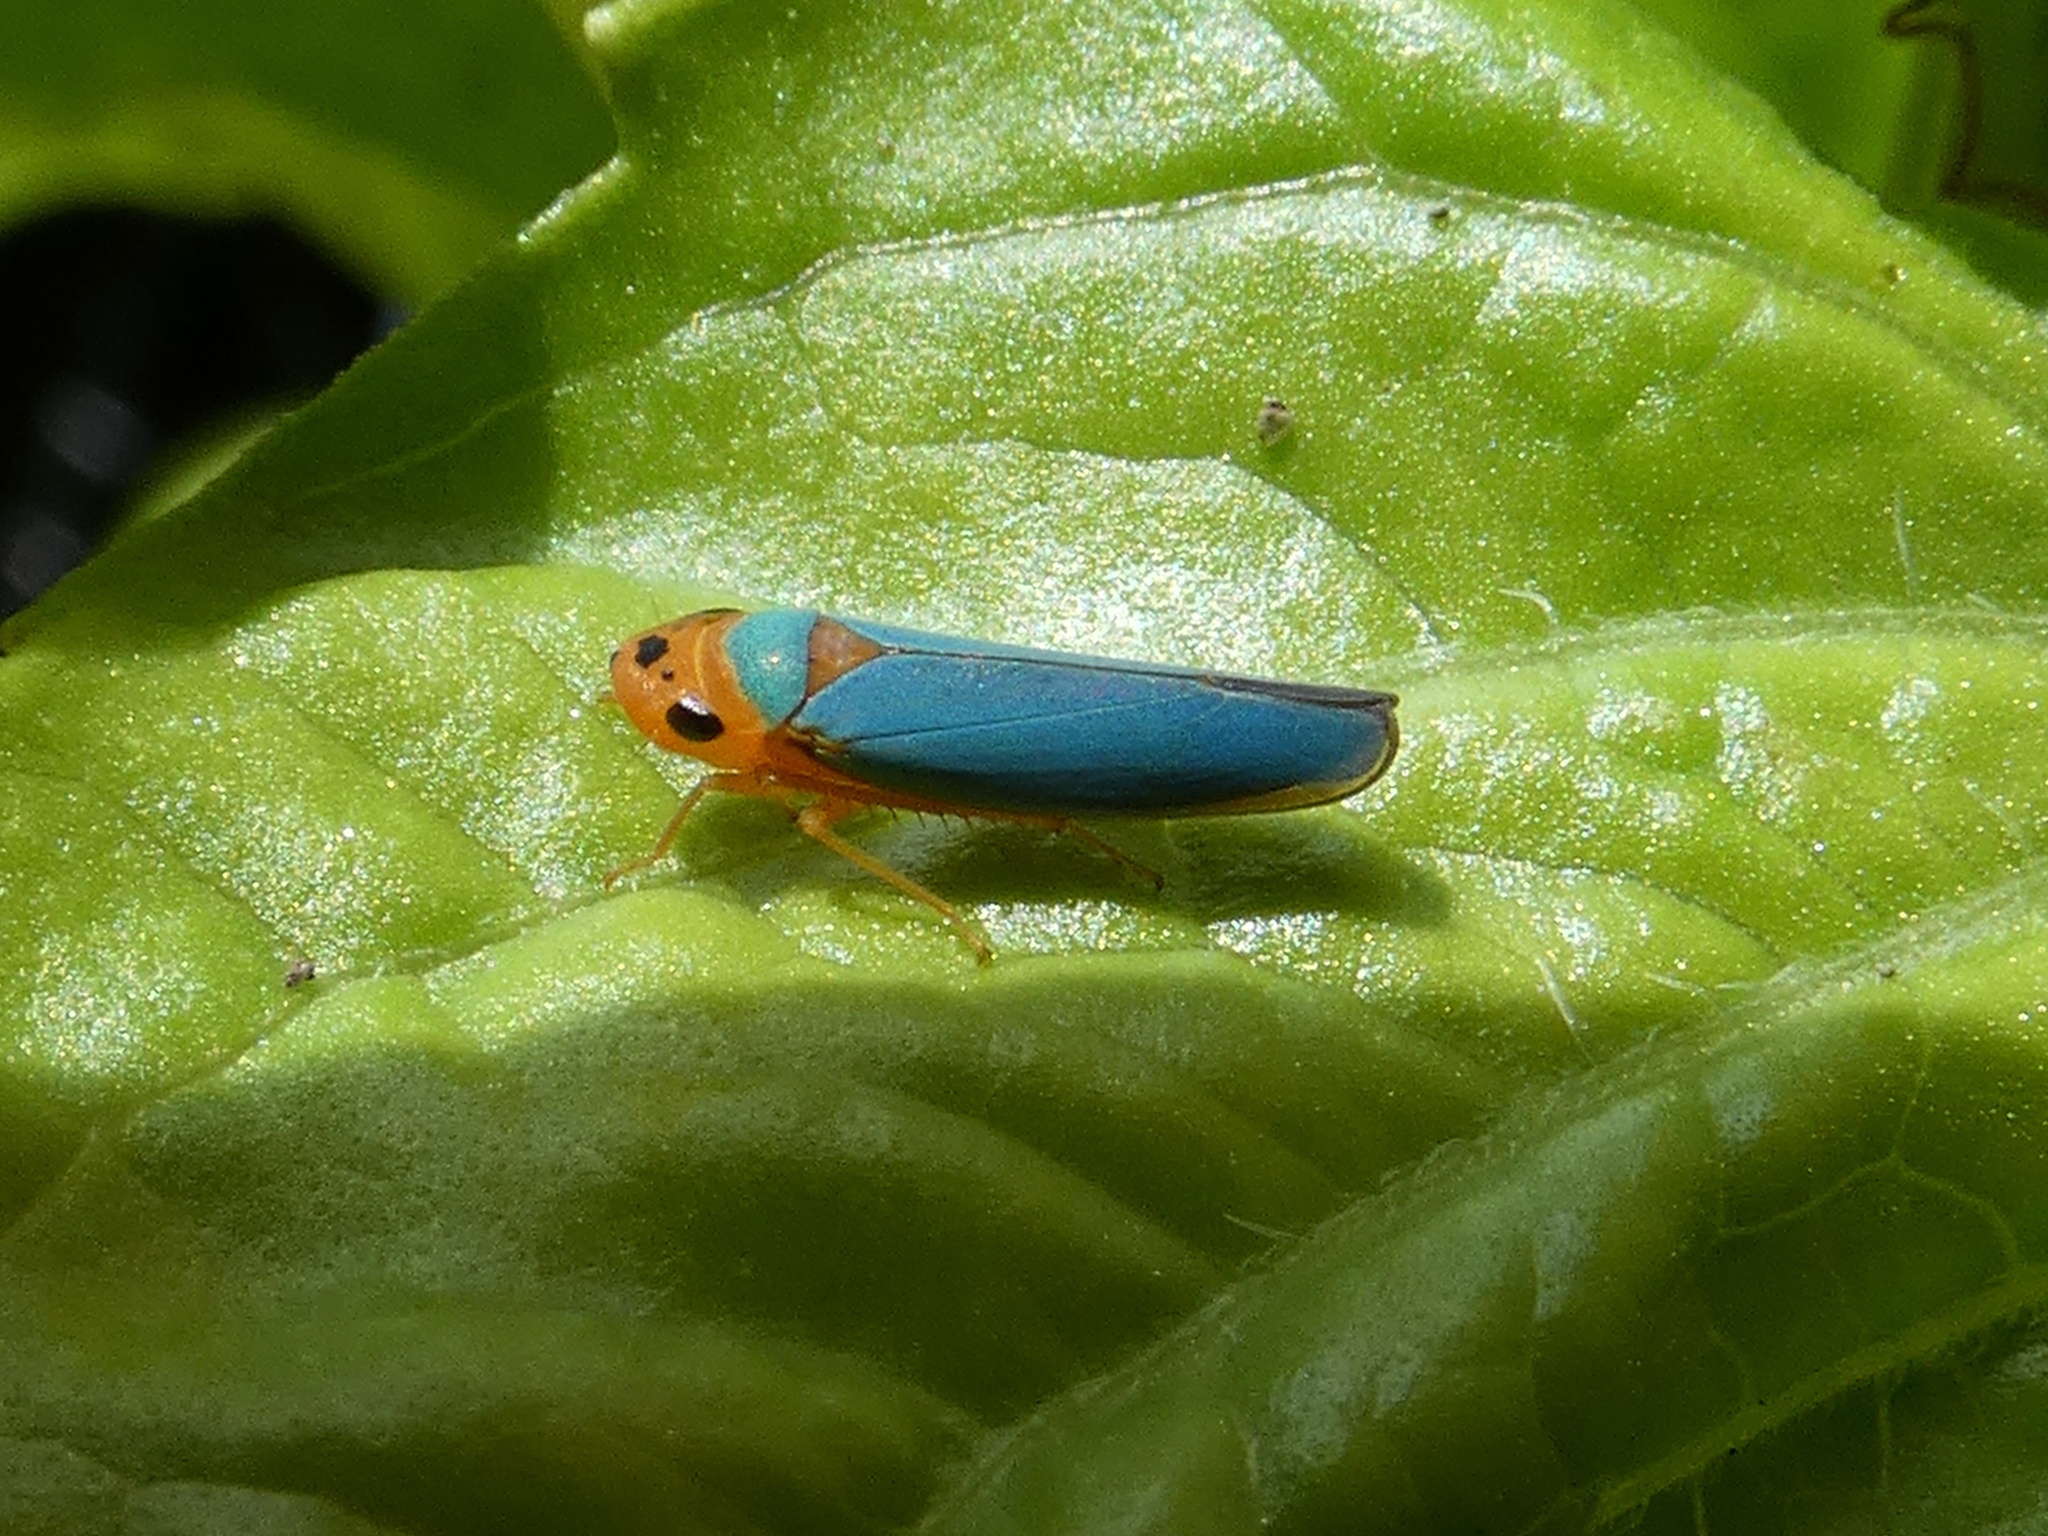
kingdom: Animalia
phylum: Arthropoda
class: Insecta
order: Hemiptera
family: Cicadellidae
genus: Macunolla
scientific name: Macunolla ventralis
